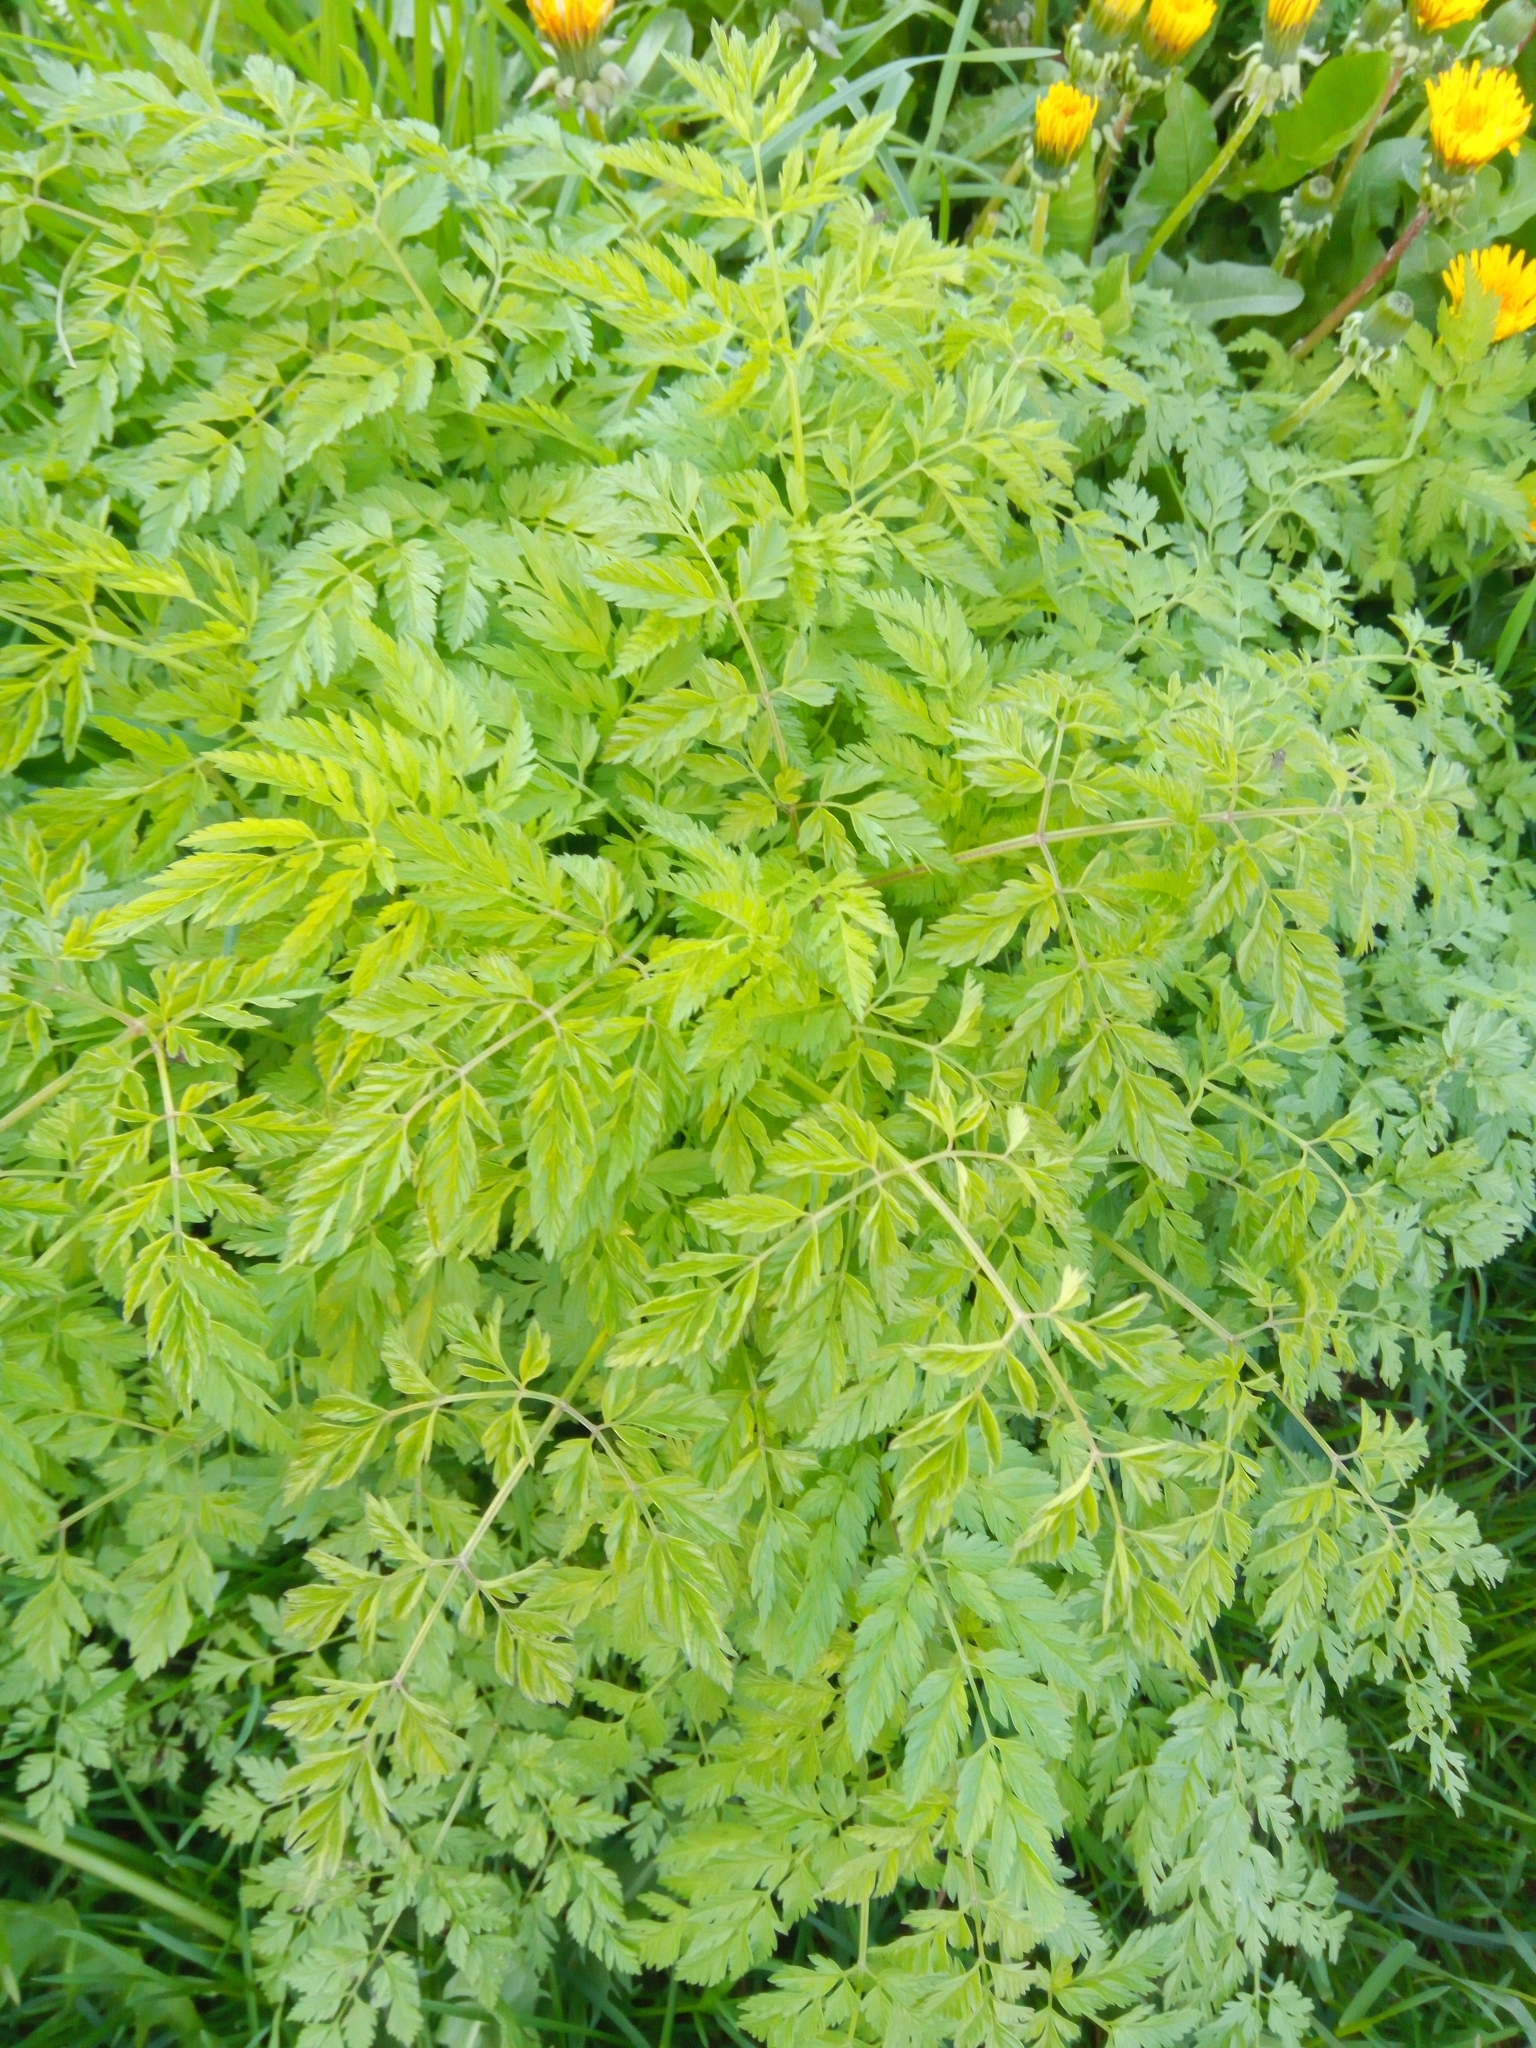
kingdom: Plantae
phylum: Tracheophyta
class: Magnoliopsida
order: Apiales
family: Apiaceae
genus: Anthriscus
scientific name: Anthriscus sylvestris
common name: Cow parsley
